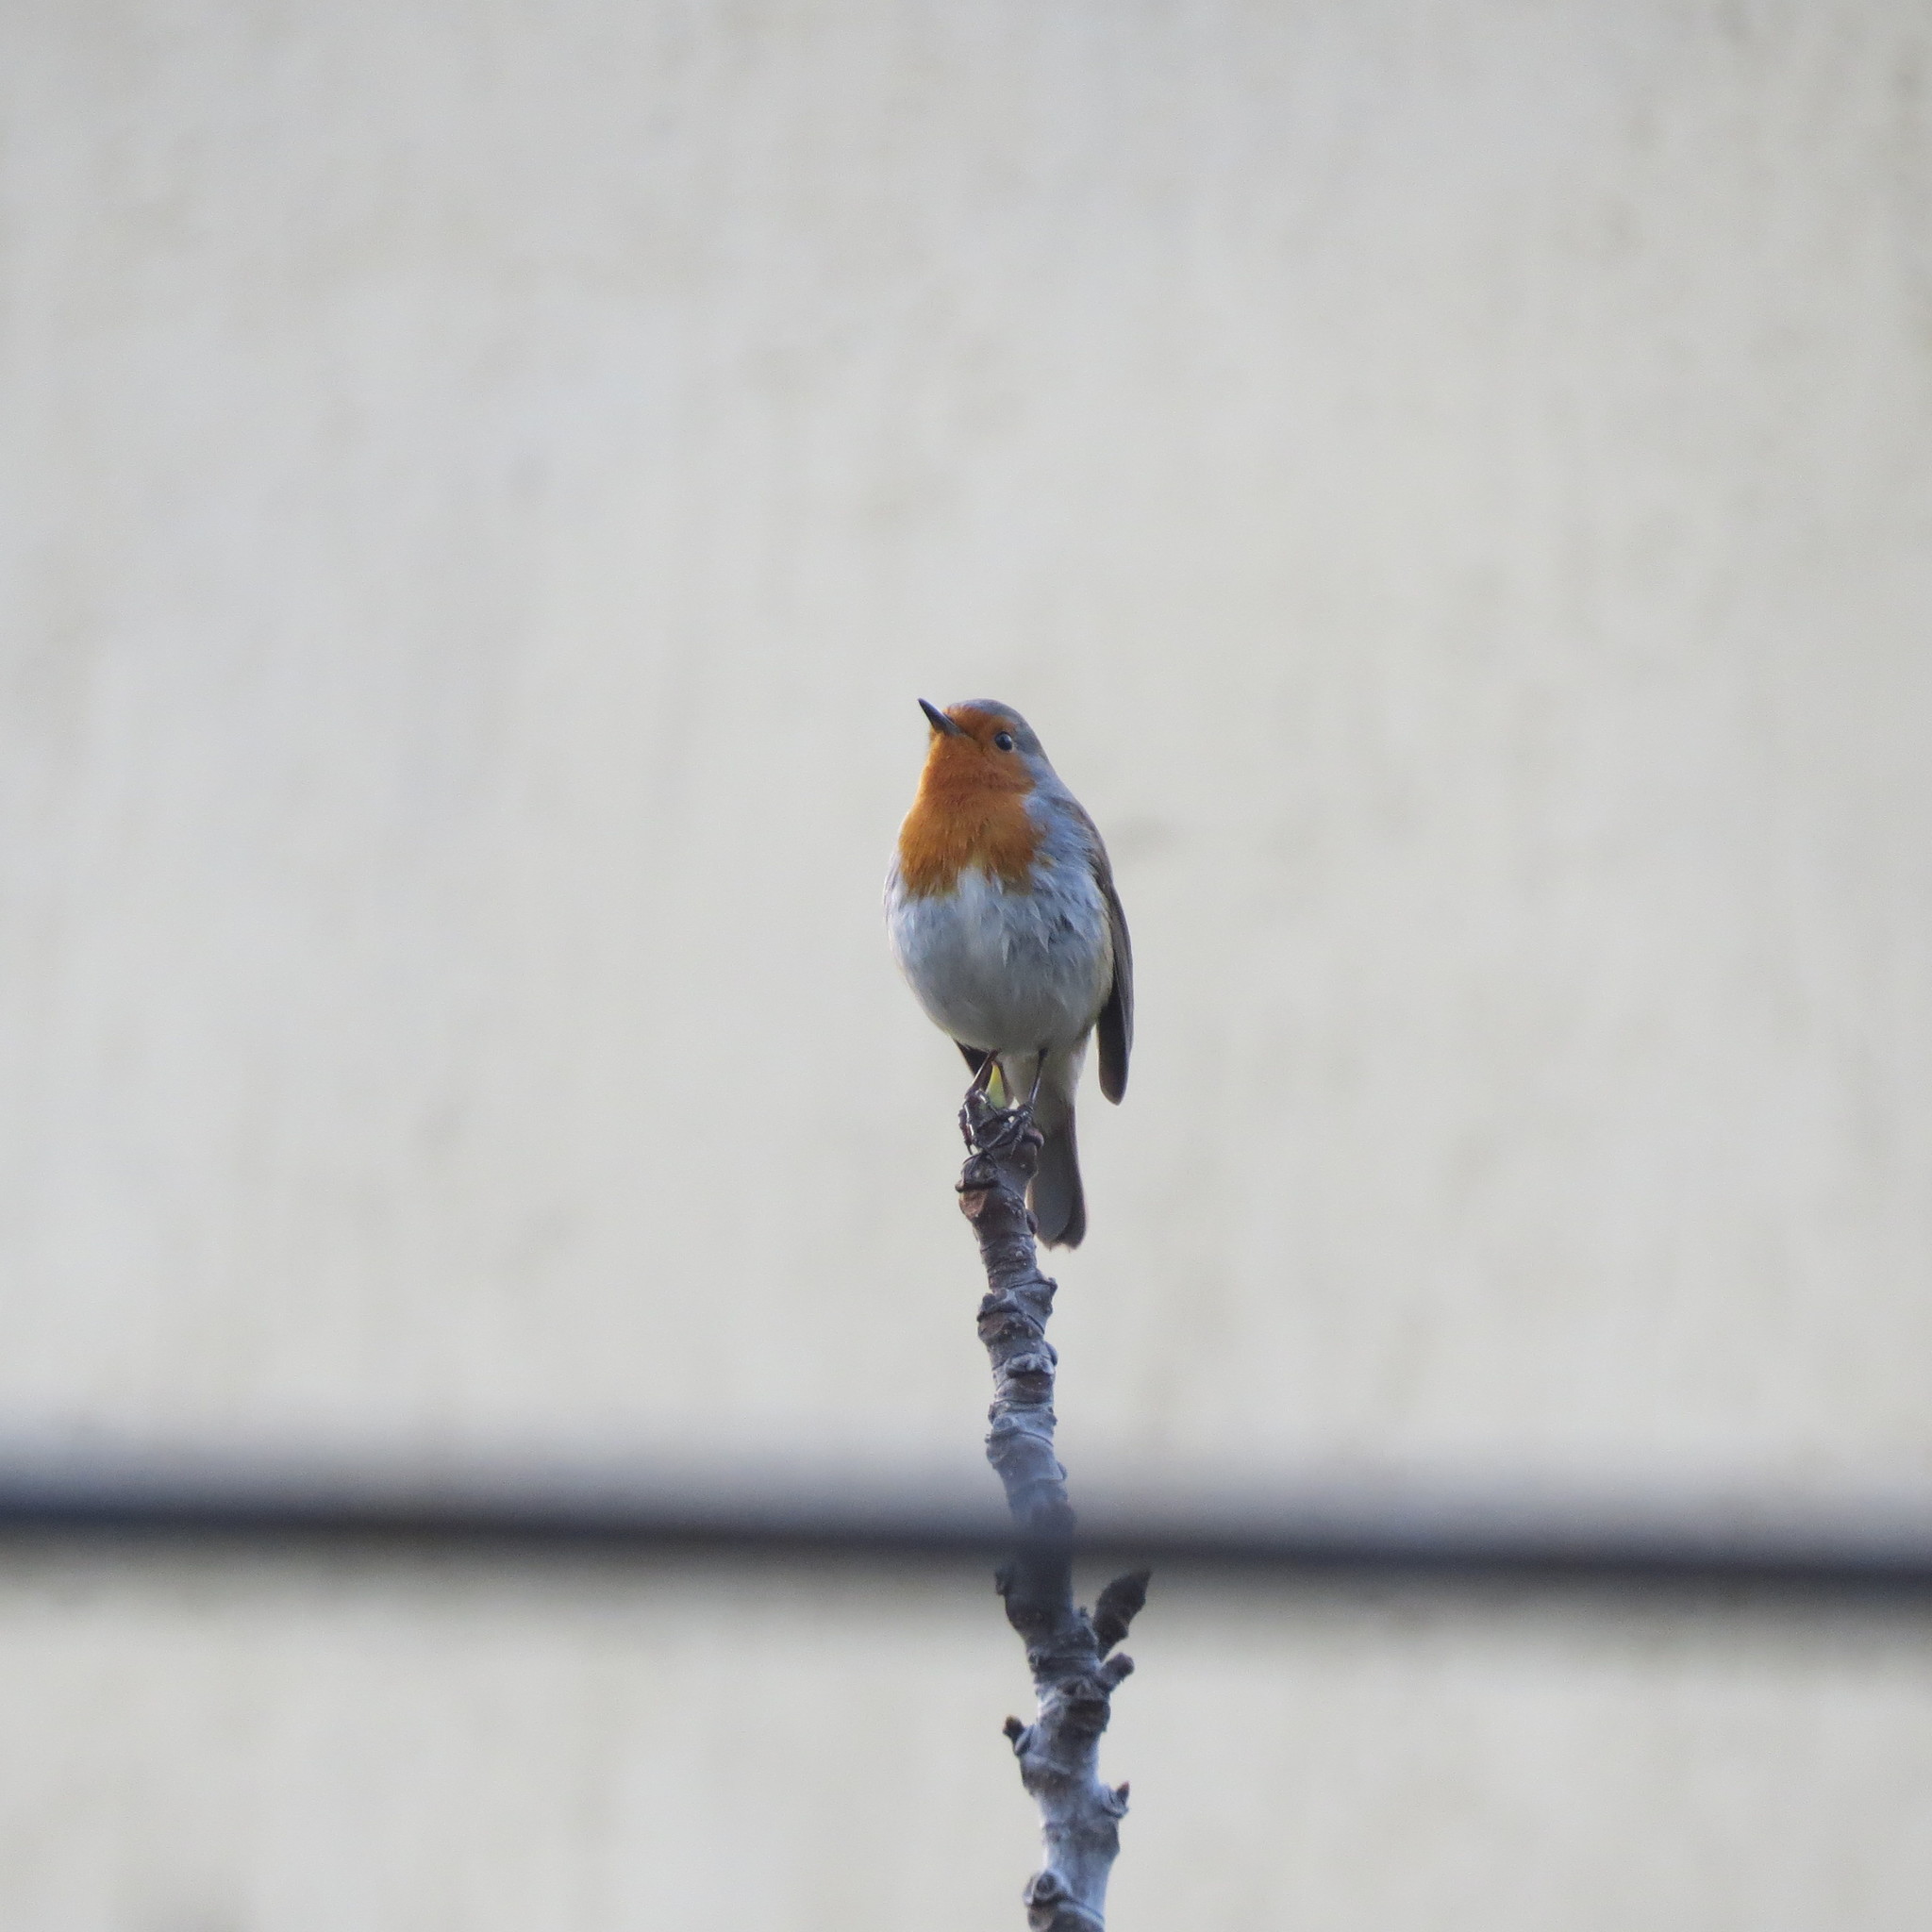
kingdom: Animalia
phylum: Chordata
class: Aves
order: Passeriformes
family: Muscicapidae
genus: Erithacus
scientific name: Erithacus rubecula
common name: European robin
